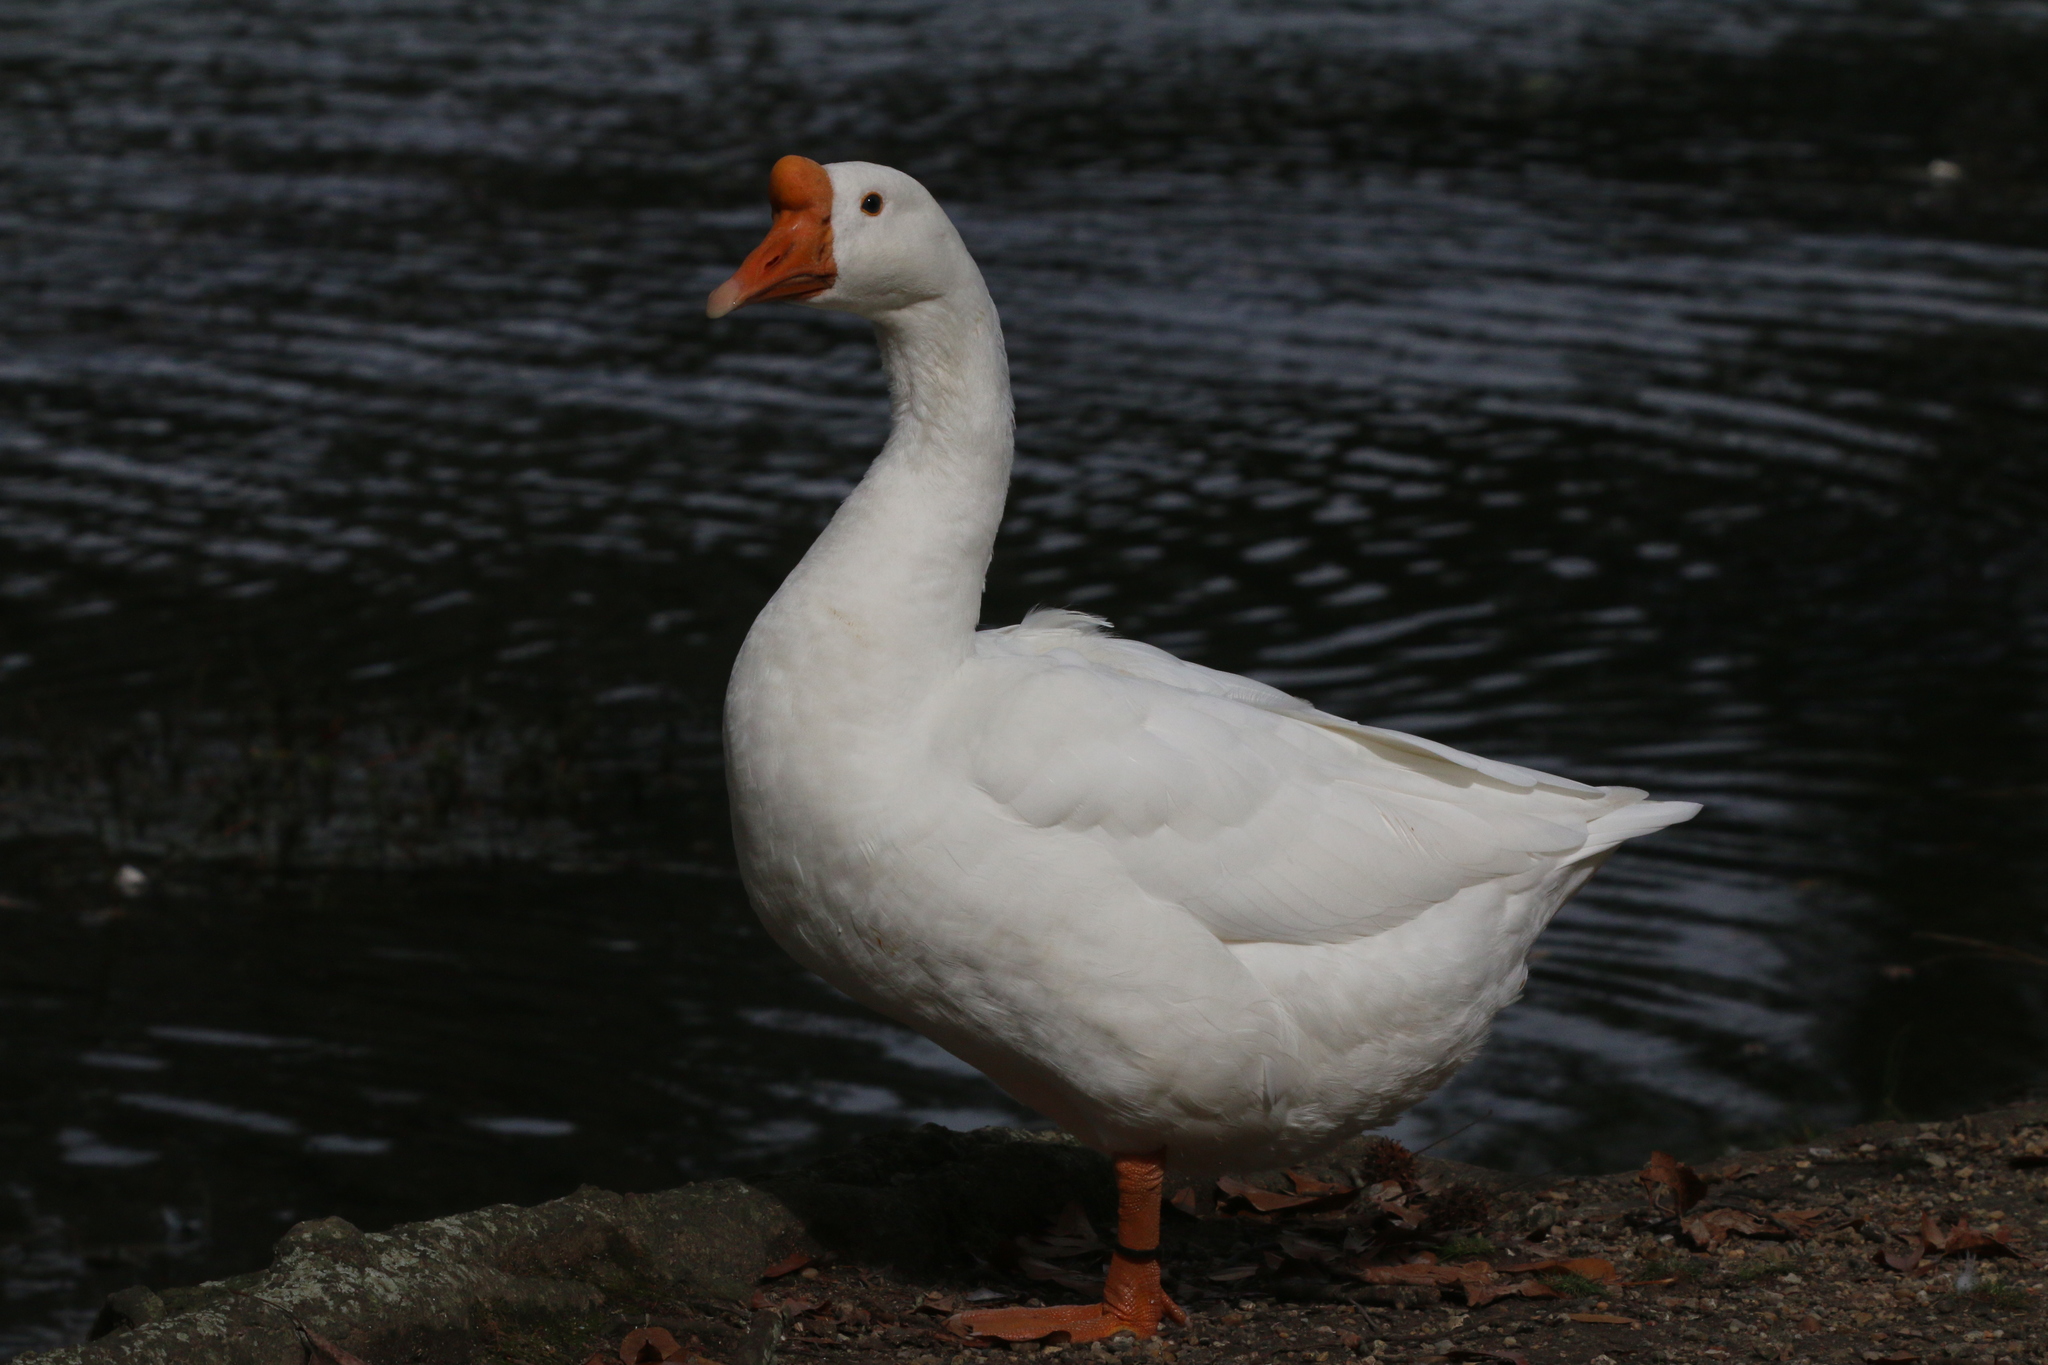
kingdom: Animalia
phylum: Chordata
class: Aves
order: Anseriformes
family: Anatidae
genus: Anser
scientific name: Anser cygnoides
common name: Swan goose
